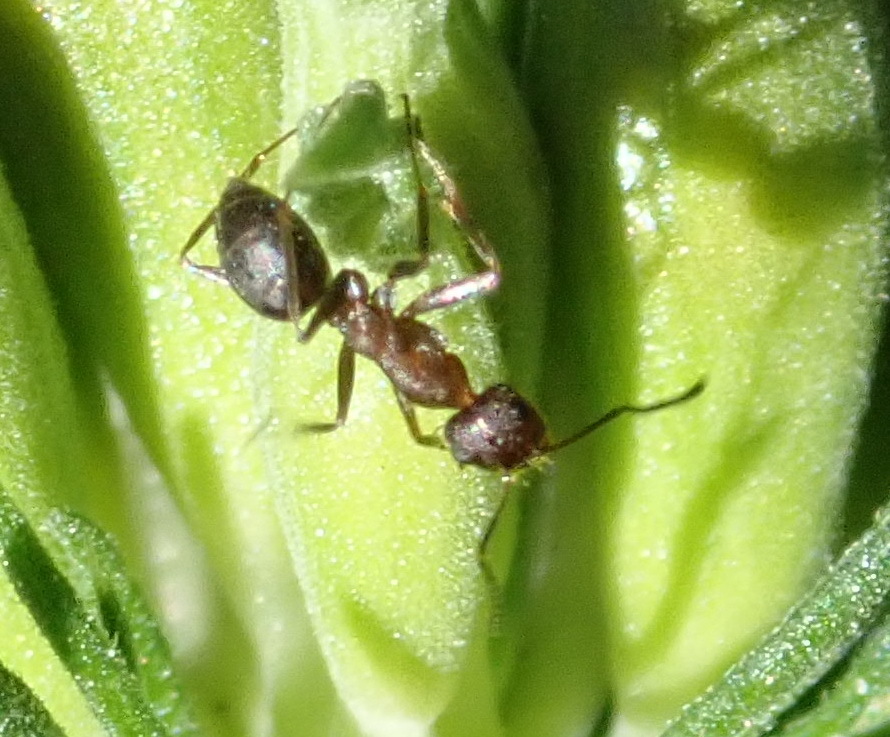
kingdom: Animalia
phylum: Arthropoda
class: Insecta
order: Hymenoptera
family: Formicidae
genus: Anoplolepis
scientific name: Anoplolepis steingroeveri
